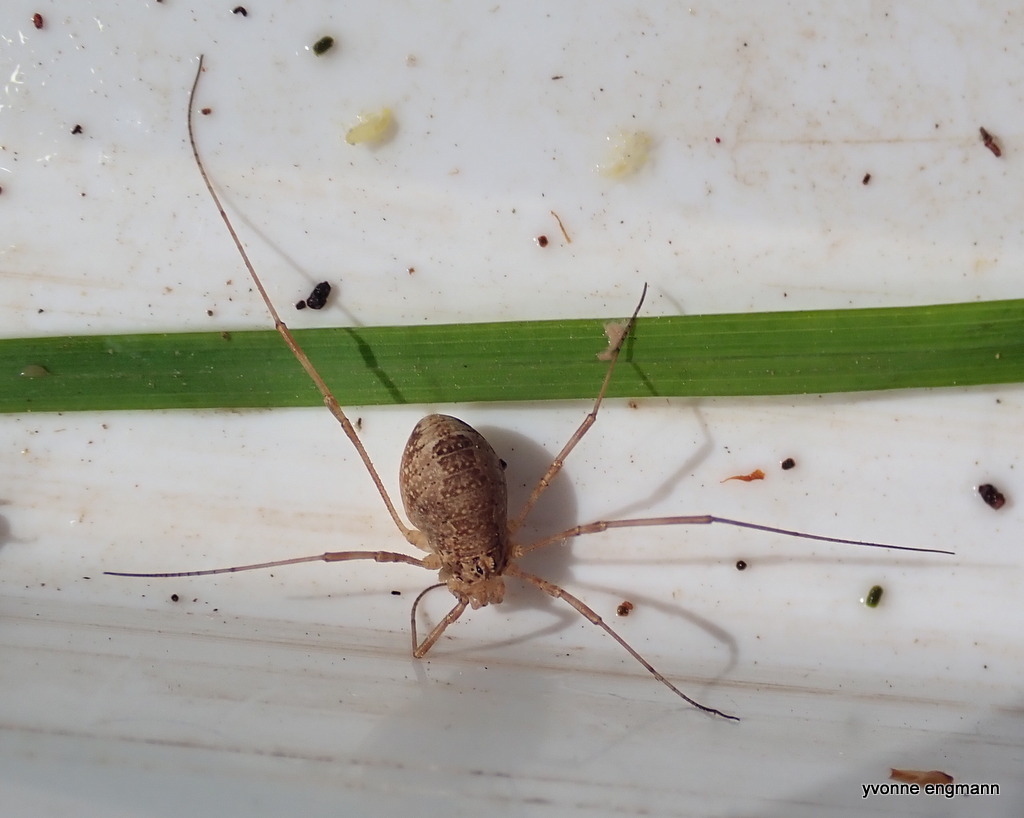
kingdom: Animalia
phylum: Arthropoda
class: Arachnida
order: Opiliones
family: Phalangiidae
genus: Rilaena
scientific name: Rilaena triangularis
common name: Spring harvestman
